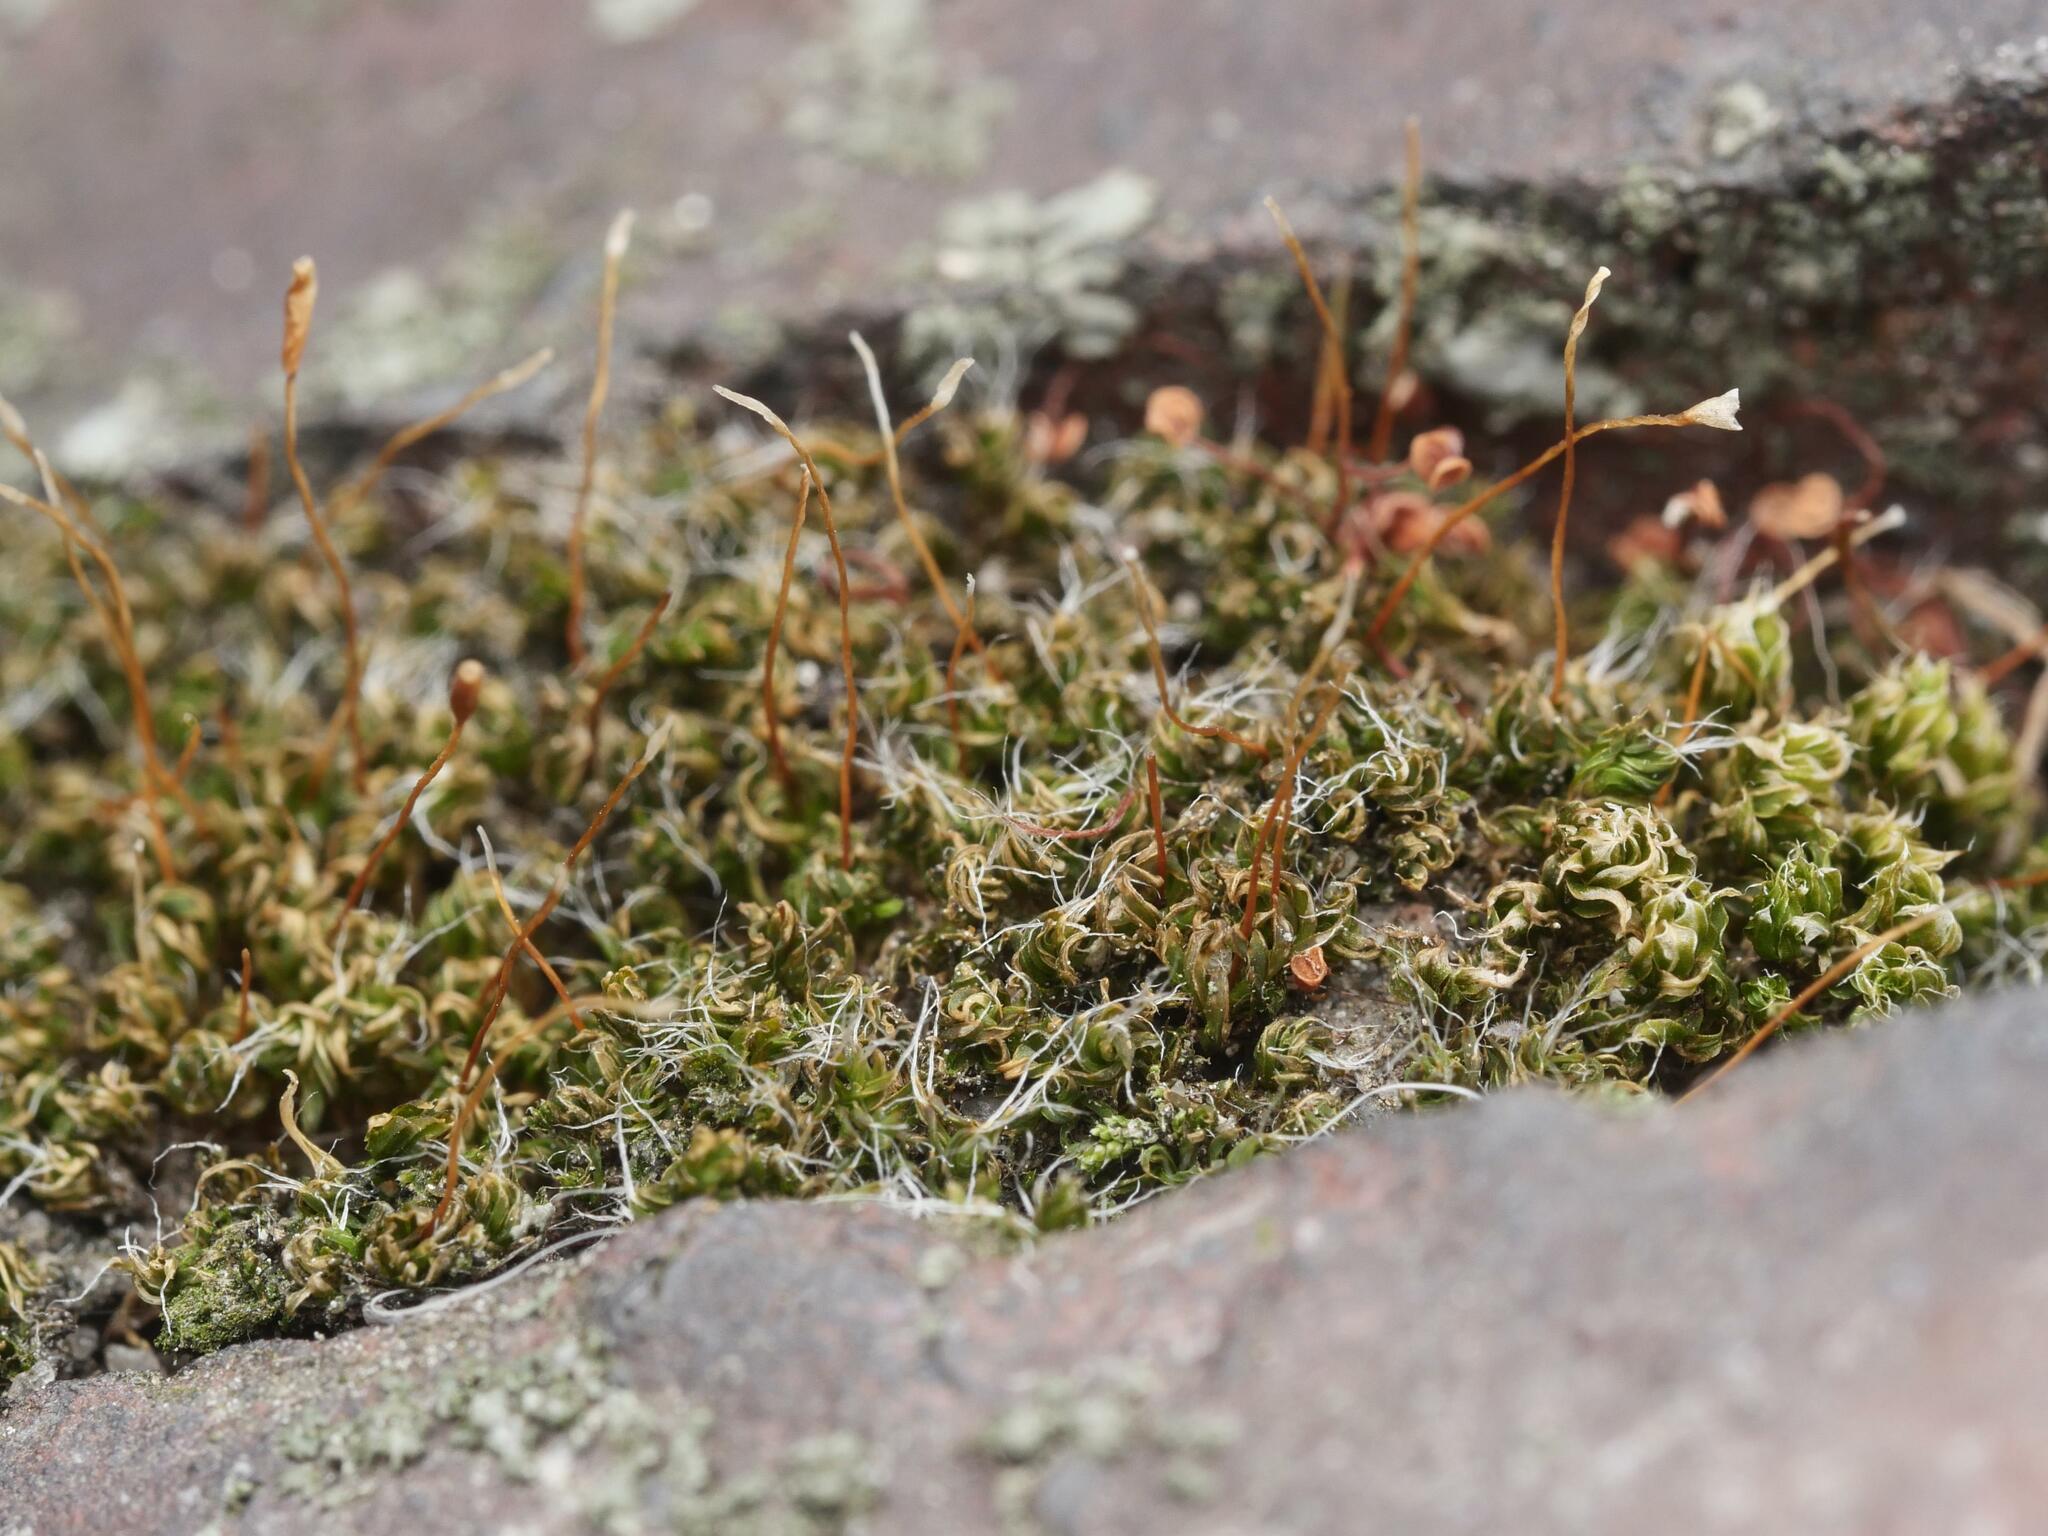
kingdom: Plantae
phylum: Bryophyta
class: Bryopsida
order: Pottiales
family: Pottiaceae
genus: Tortula
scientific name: Tortula muralis
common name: Wall screw-moss
